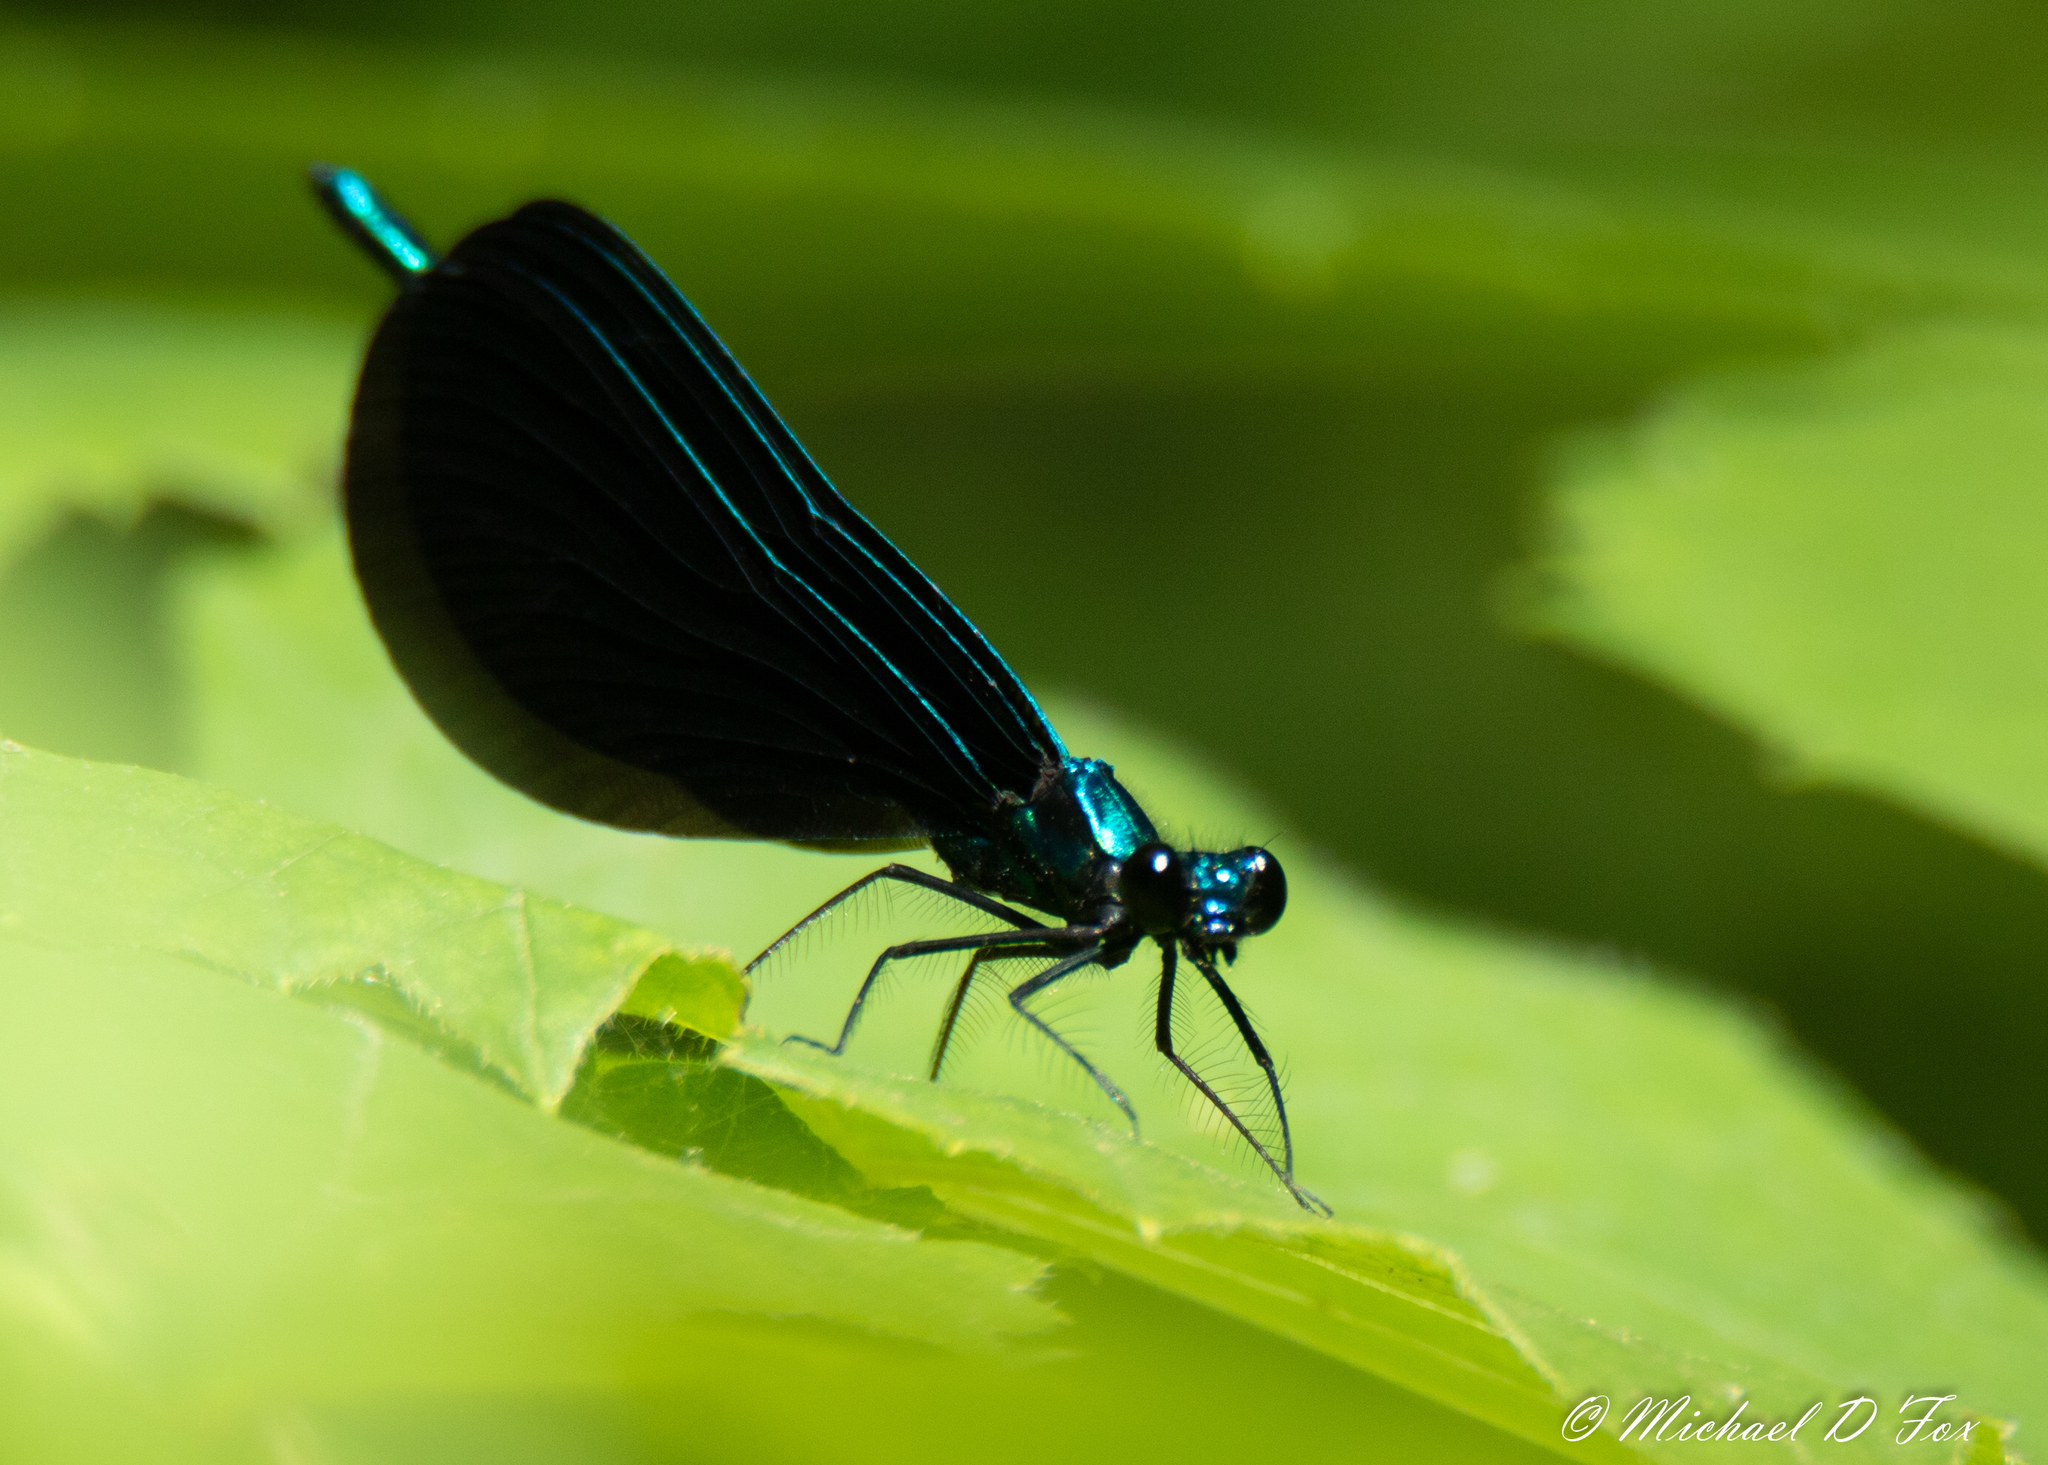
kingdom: Animalia
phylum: Arthropoda
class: Insecta
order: Odonata
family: Calopterygidae
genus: Calopteryx
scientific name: Calopteryx maculata
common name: Ebony jewelwing
